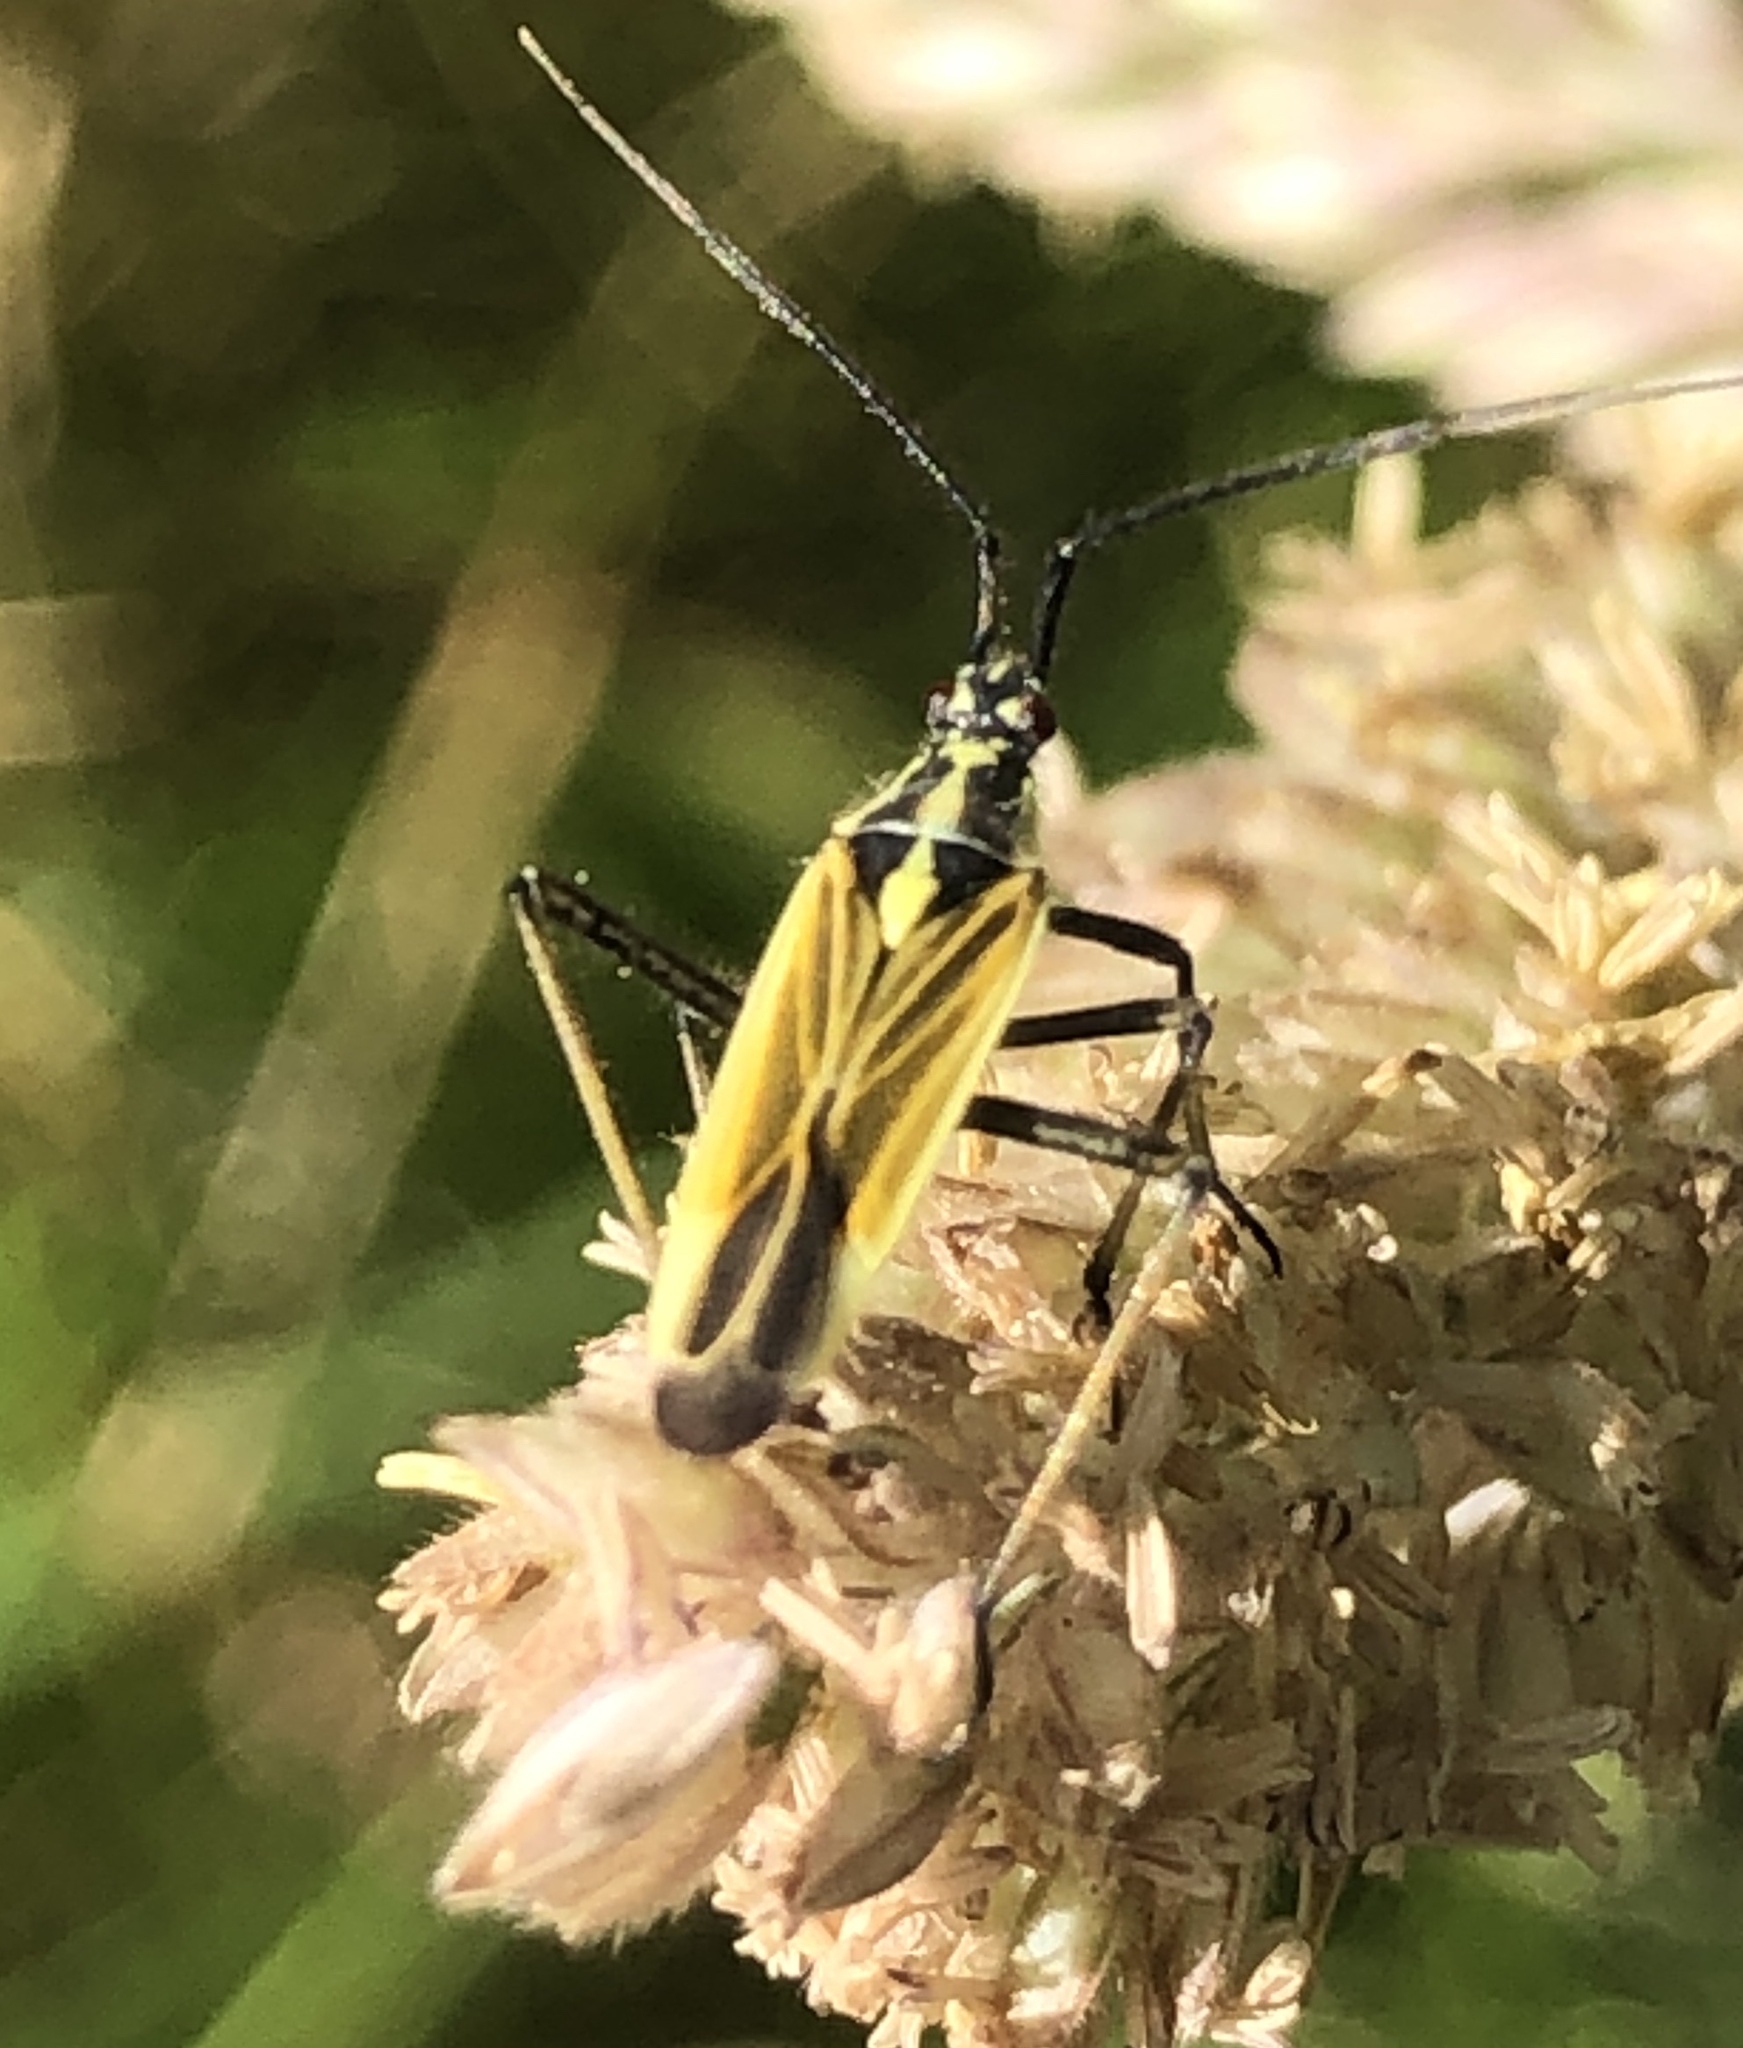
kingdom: Animalia
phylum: Arthropoda
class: Insecta
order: Hemiptera
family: Miridae
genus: Leptopterna
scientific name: Leptopterna dolabrata
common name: Meadow plant bug
